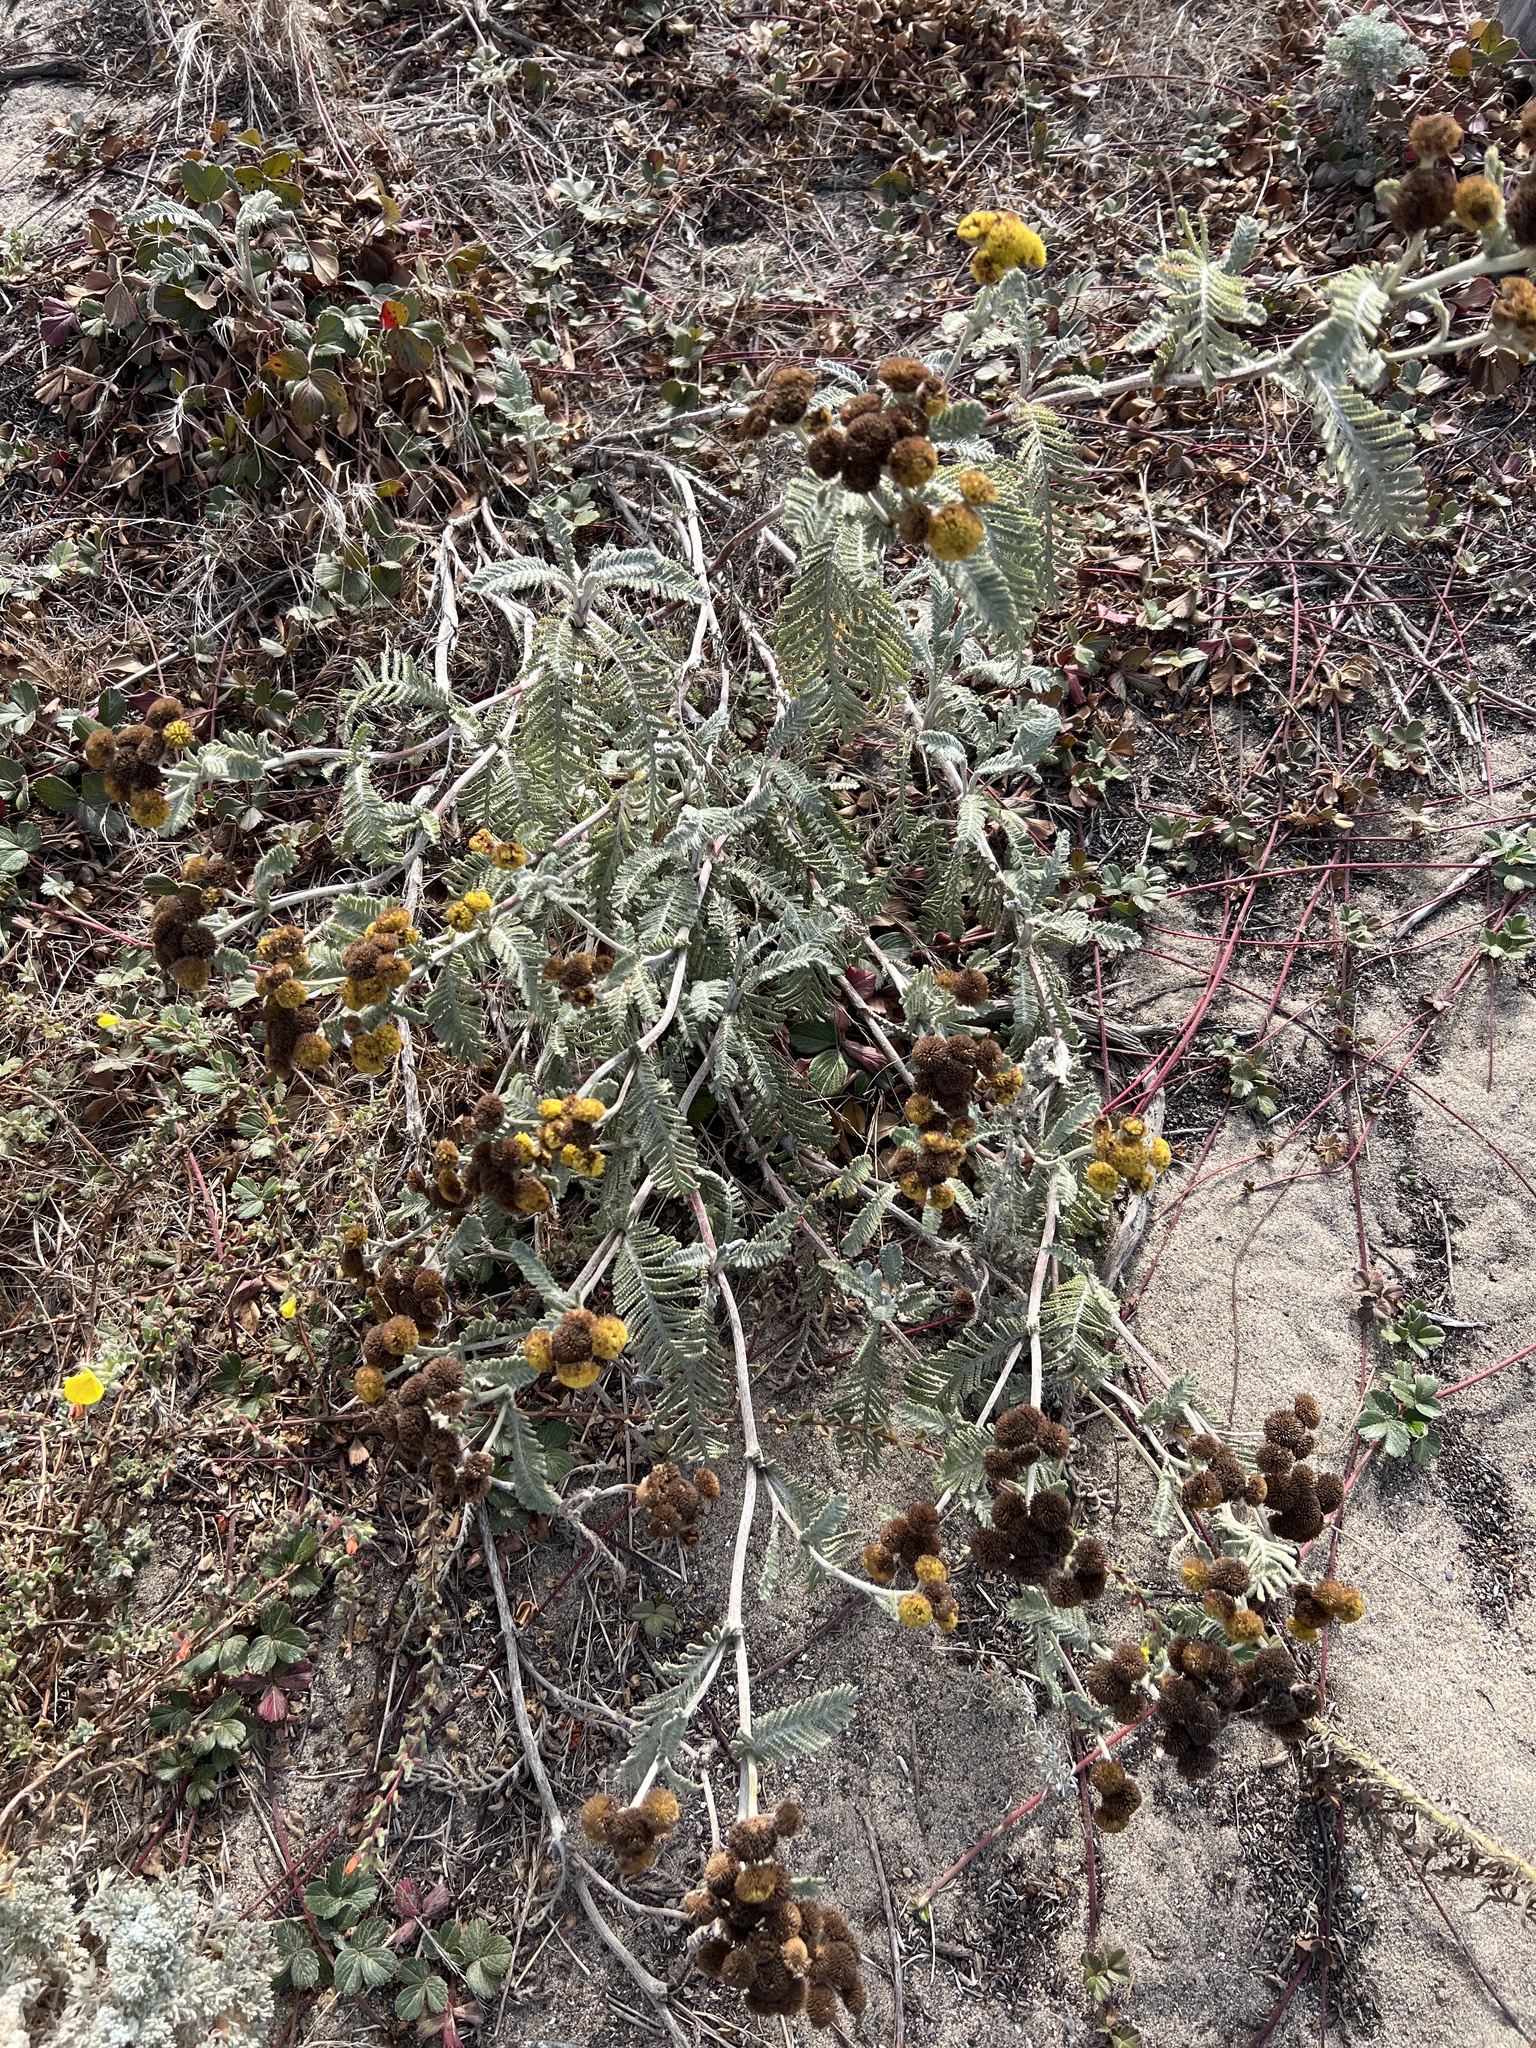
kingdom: Plantae
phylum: Tracheophyta
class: Magnoliopsida
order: Asterales
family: Asteraceae
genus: Tanacetum
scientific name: Tanacetum bipinnatum
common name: Dwarf tansy
